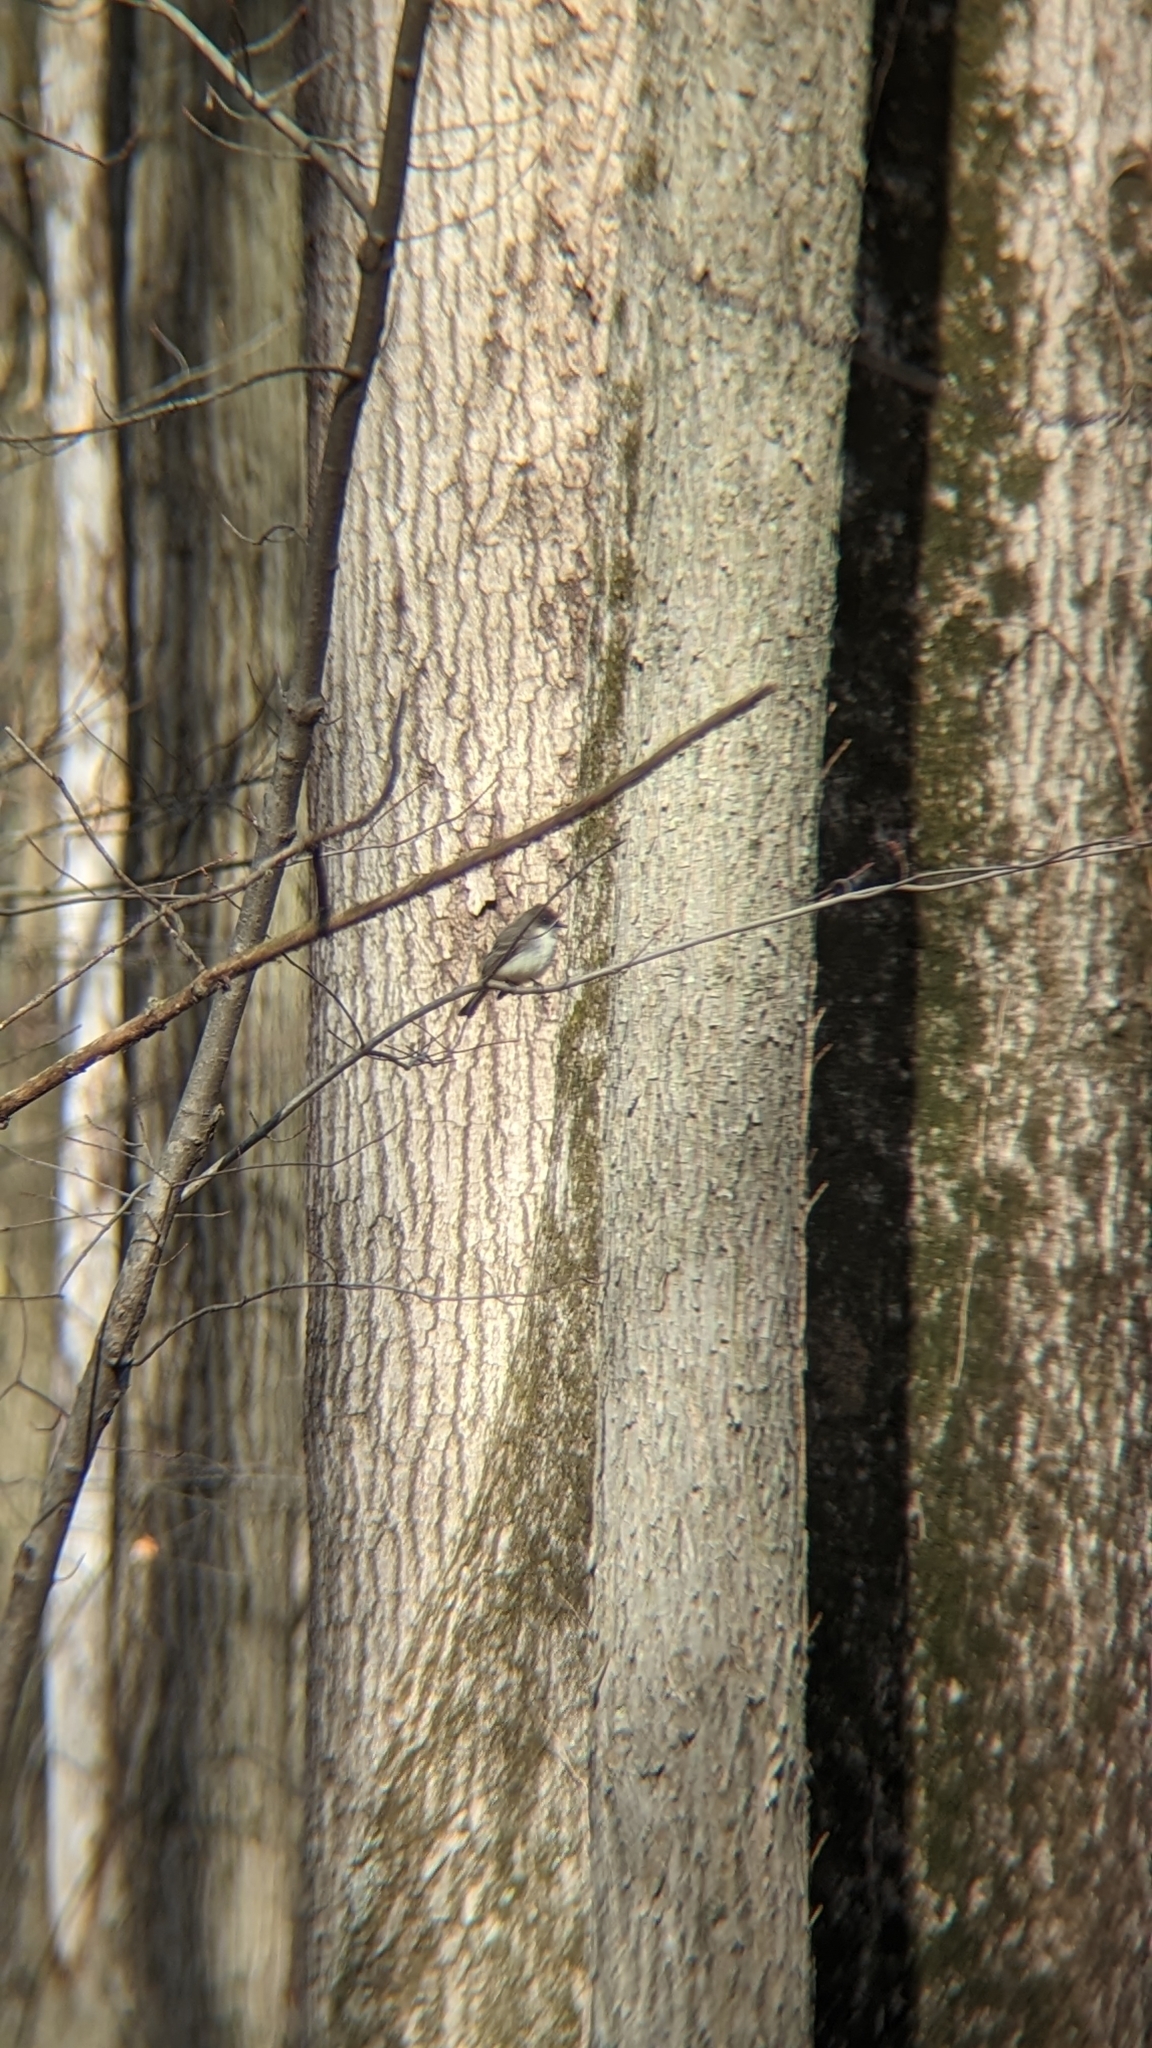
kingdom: Animalia
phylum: Chordata
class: Aves
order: Passeriformes
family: Tyrannidae
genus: Sayornis
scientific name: Sayornis phoebe
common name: Eastern phoebe
